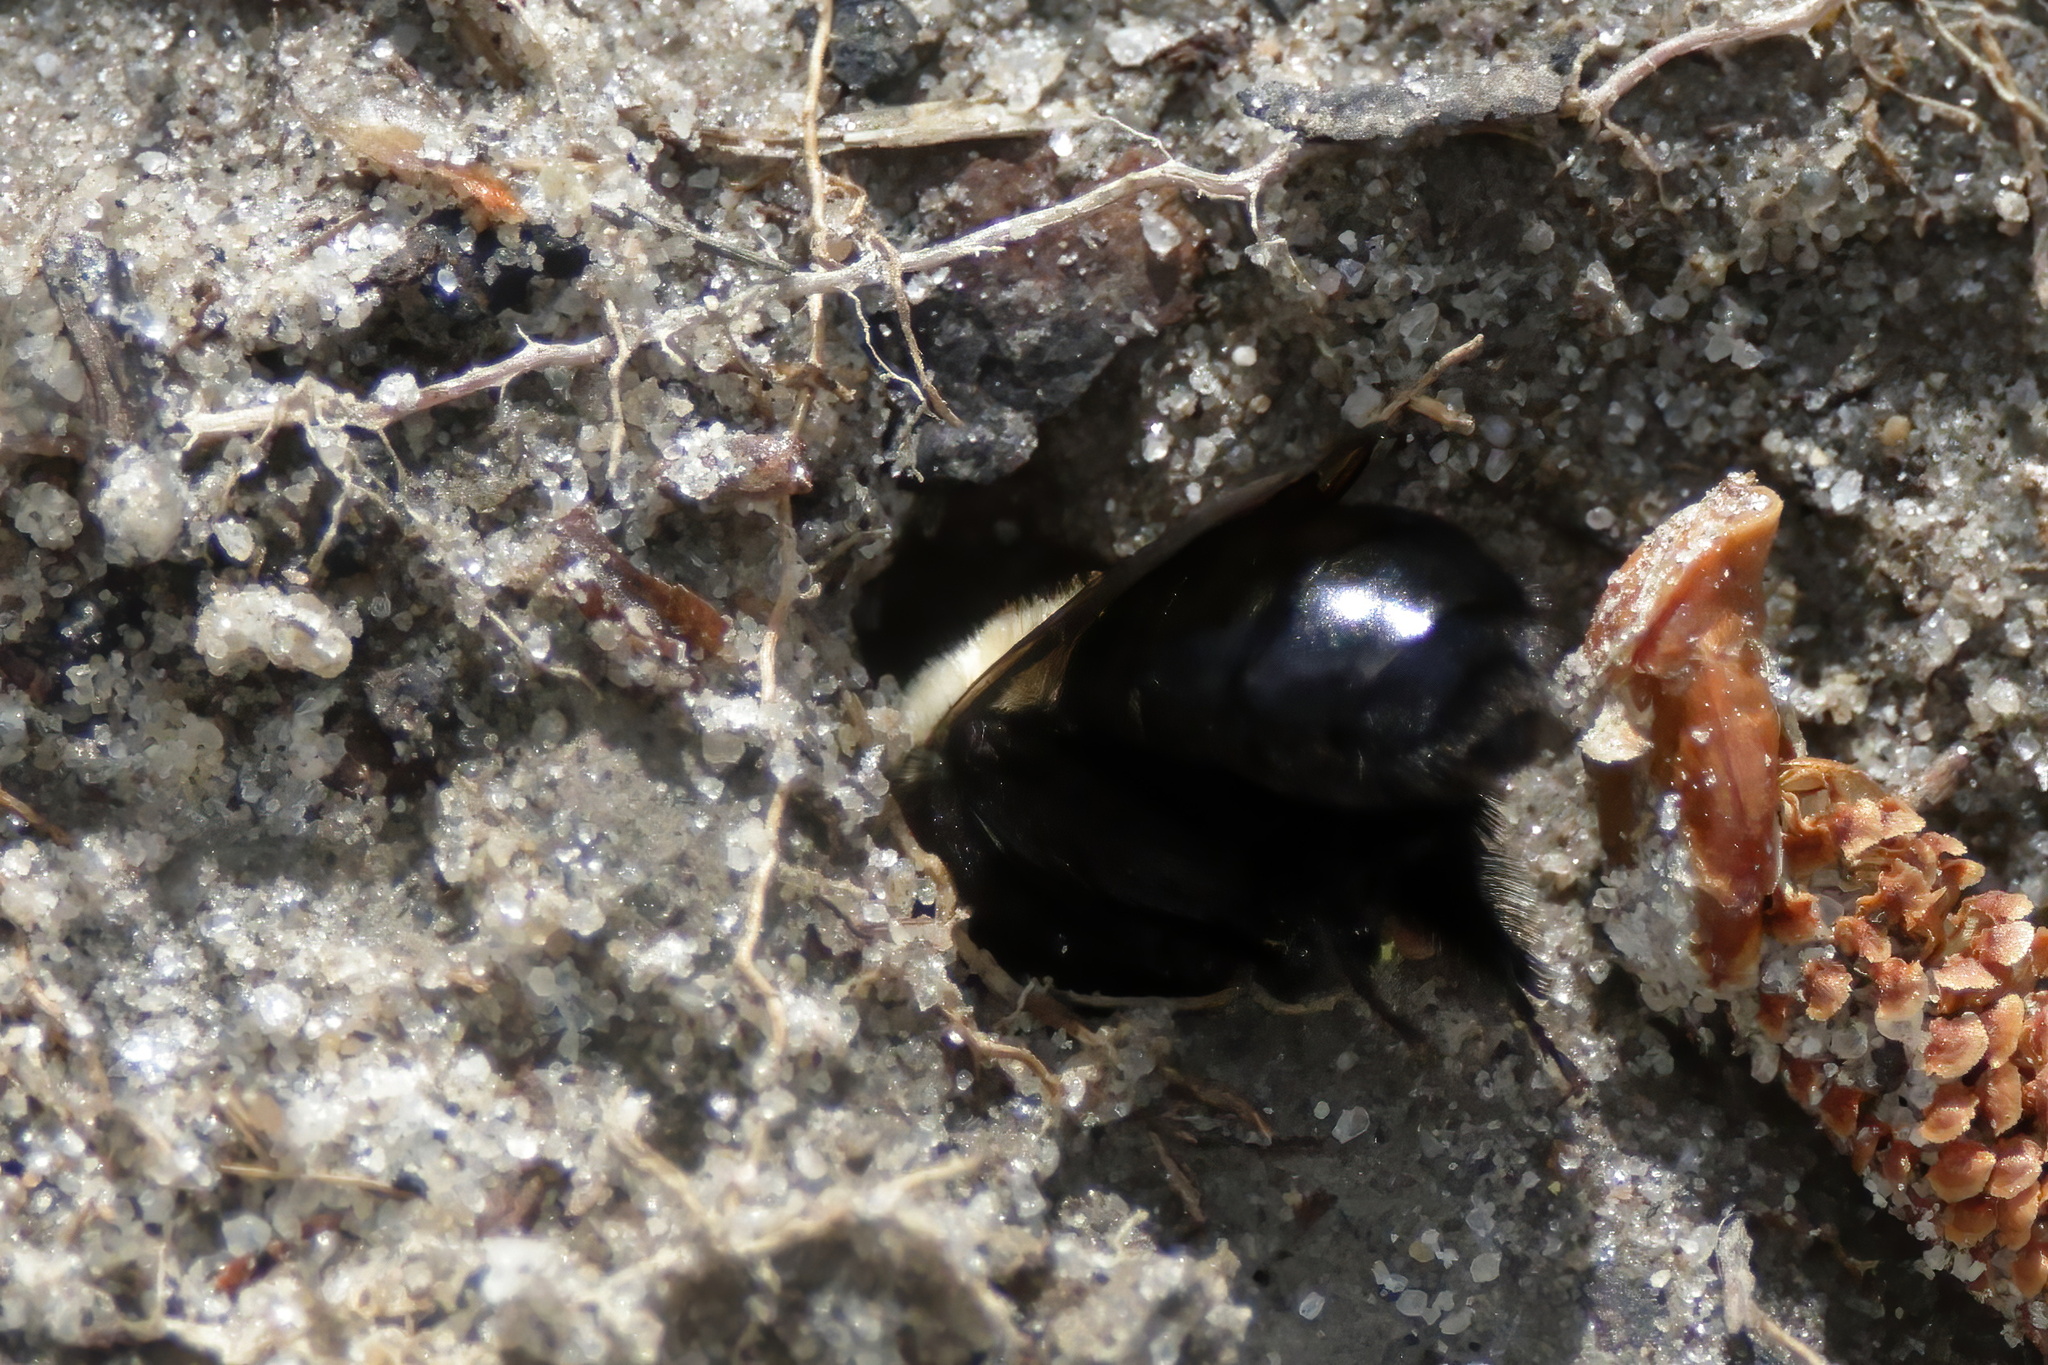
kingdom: Animalia
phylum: Arthropoda
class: Insecta
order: Hymenoptera
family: Apidae
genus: Habropoda
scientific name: Habropoda laboriosa
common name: Southeastern blueberry bee
